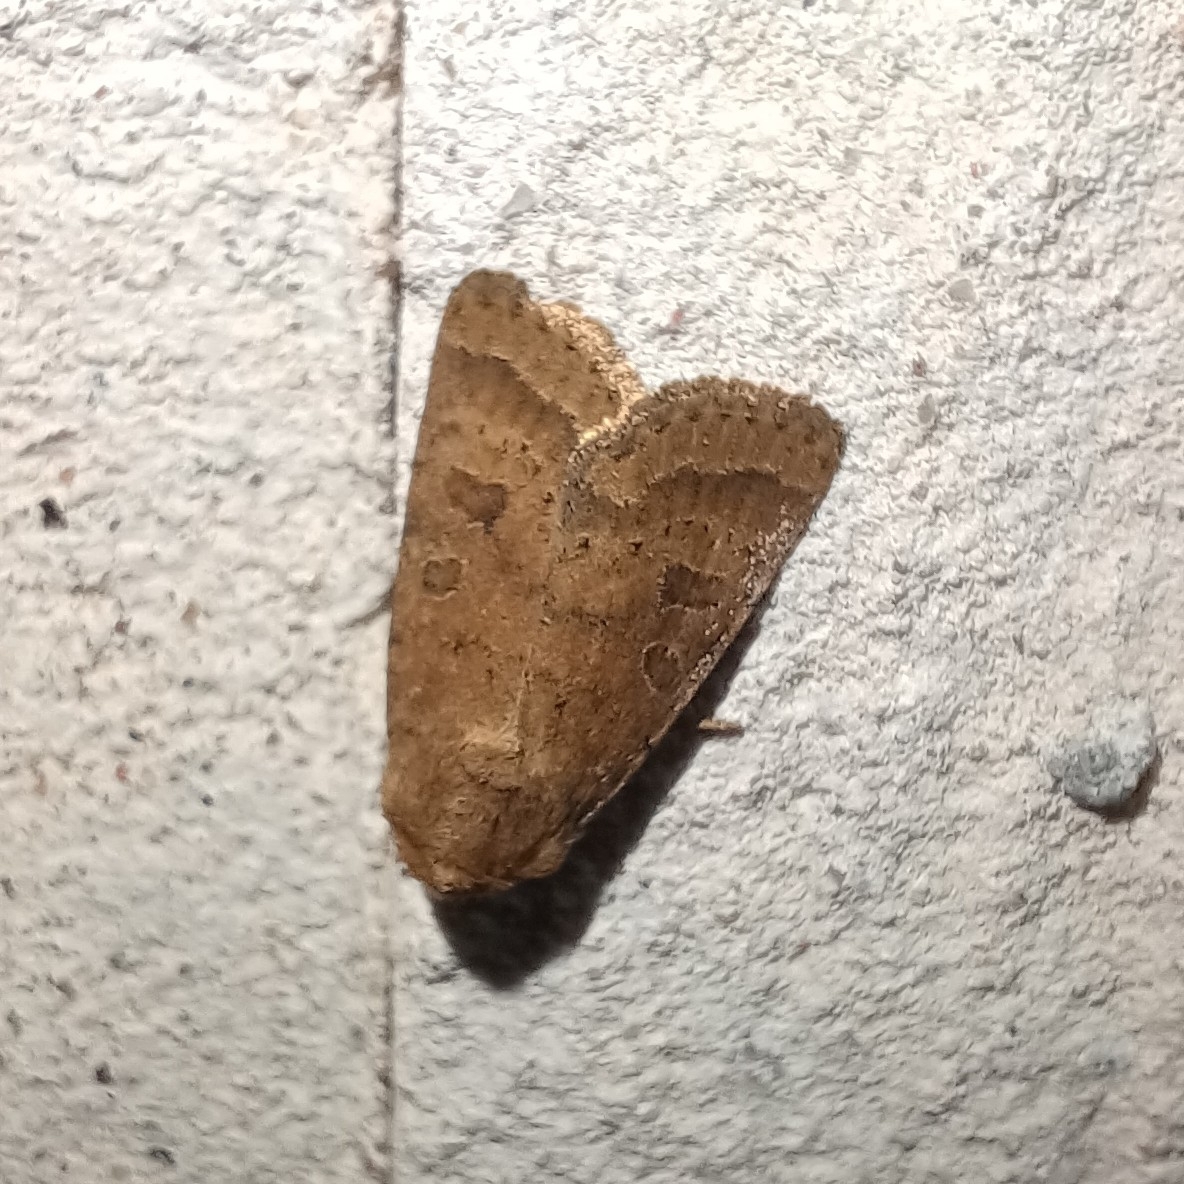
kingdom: Animalia
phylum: Arthropoda
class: Insecta
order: Lepidoptera
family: Noctuidae
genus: Hoplodrina
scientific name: Hoplodrina octogenaria
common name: Uncertain
